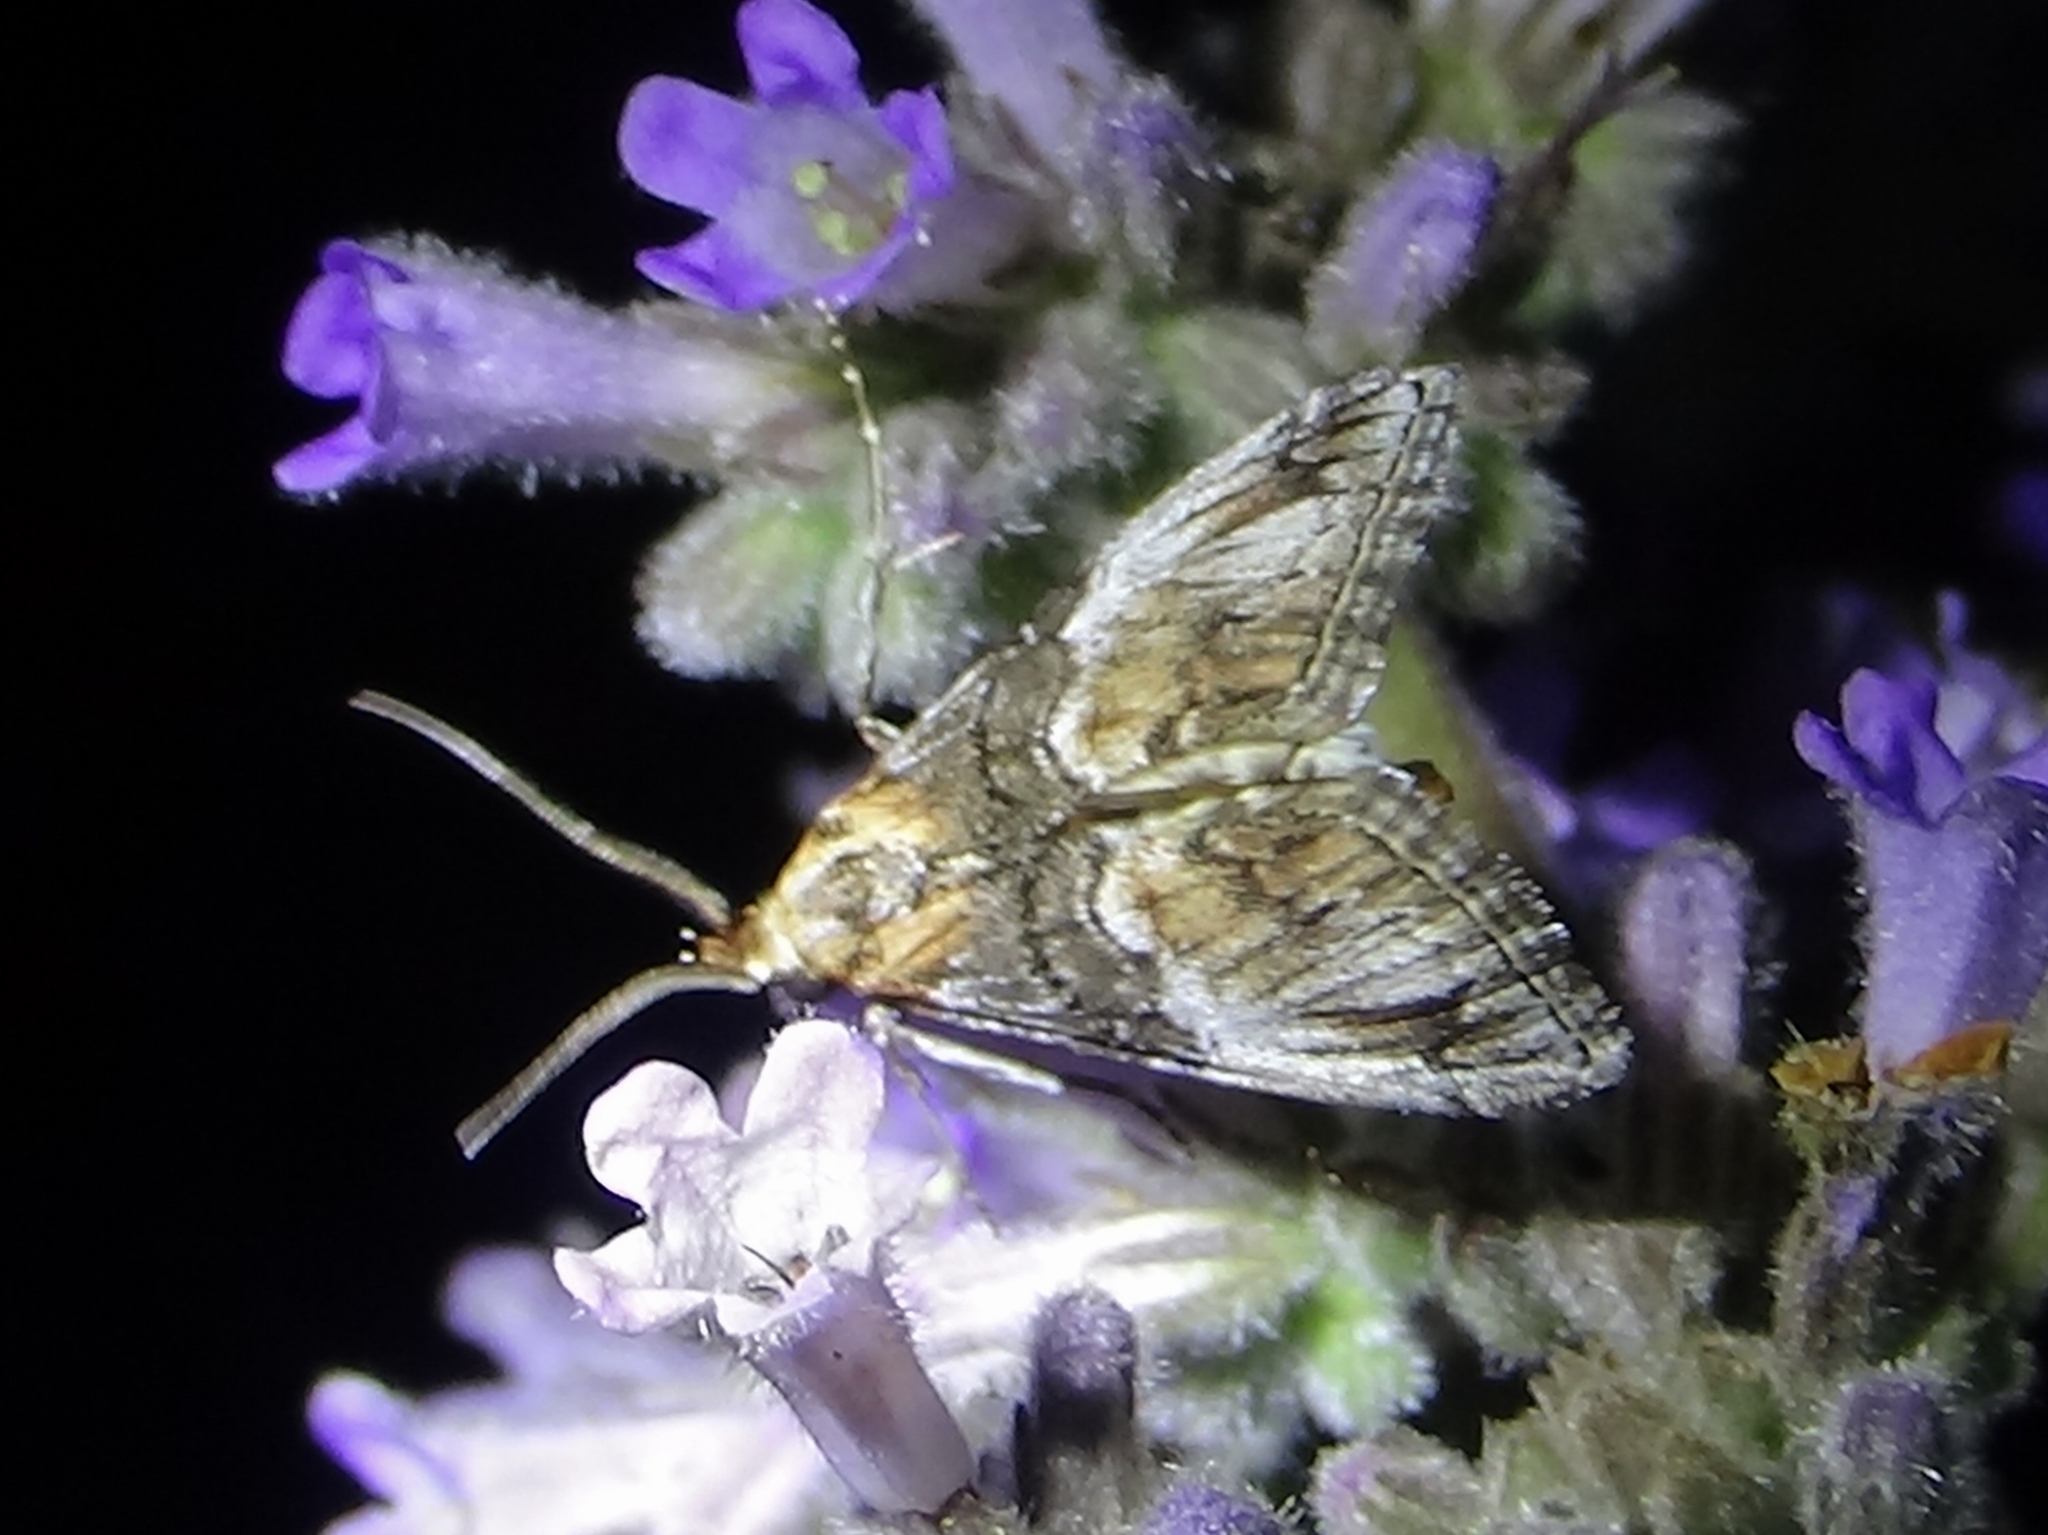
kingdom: Animalia
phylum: Arthropoda
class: Insecta
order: Lepidoptera
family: Pyralidae
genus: Toripalpus
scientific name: Toripalpus trabalis
